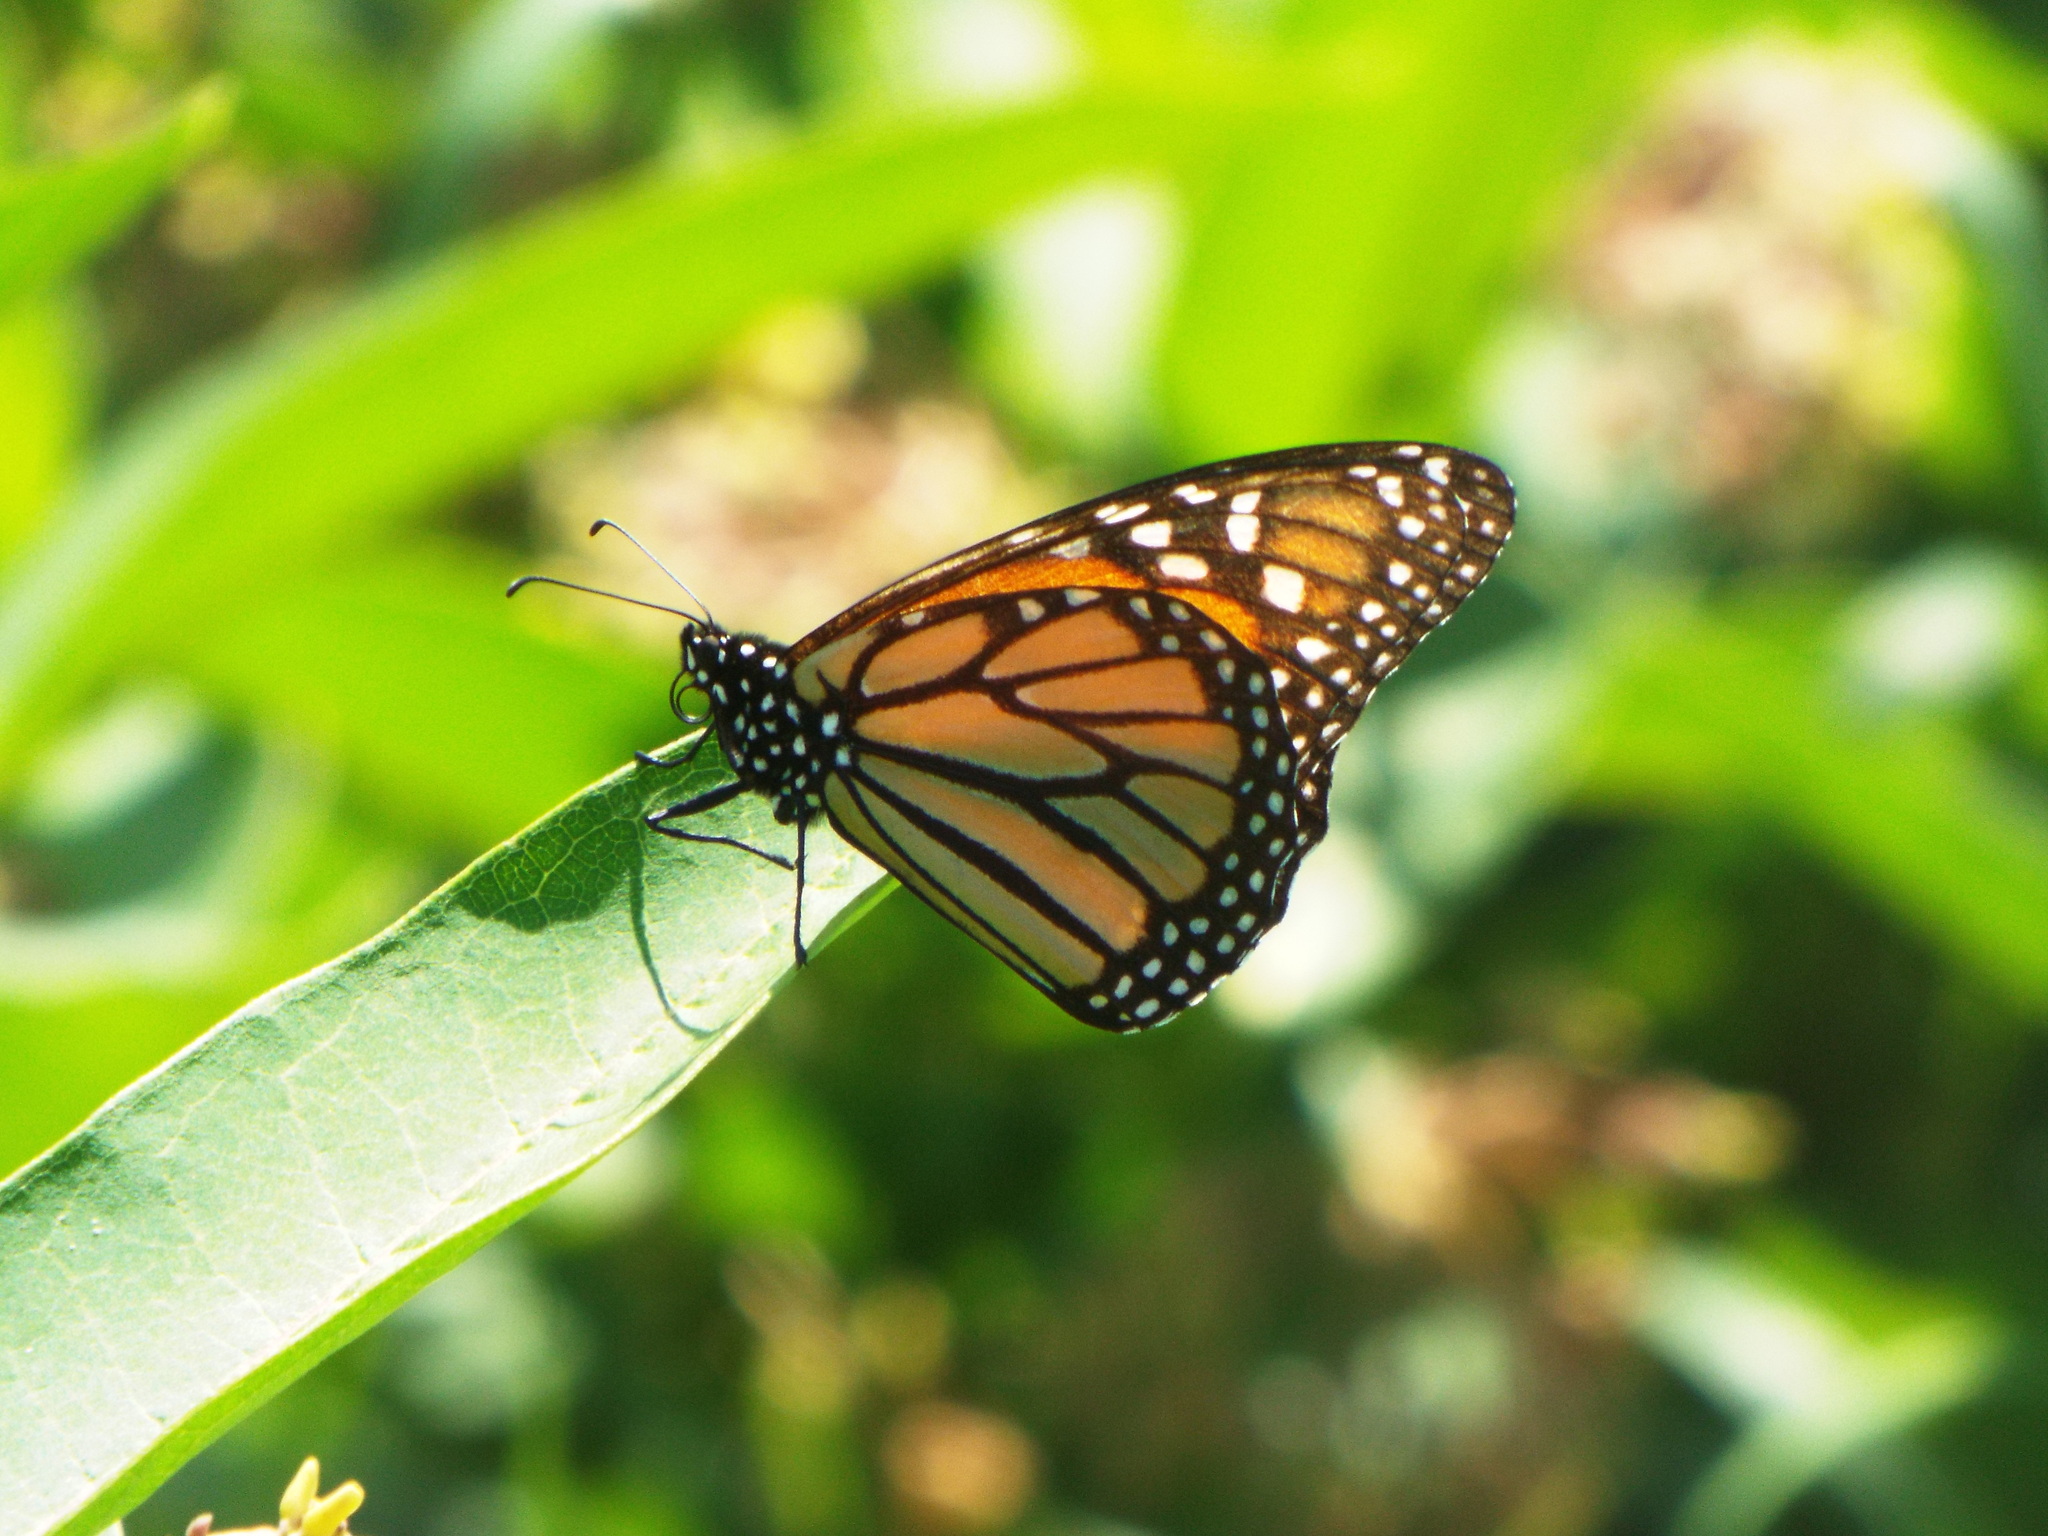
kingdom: Animalia
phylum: Arthropoda
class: Insecta
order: Lepidoptera
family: Nymphalidae
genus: Danaus
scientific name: Danaus plexippus
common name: Monarch
